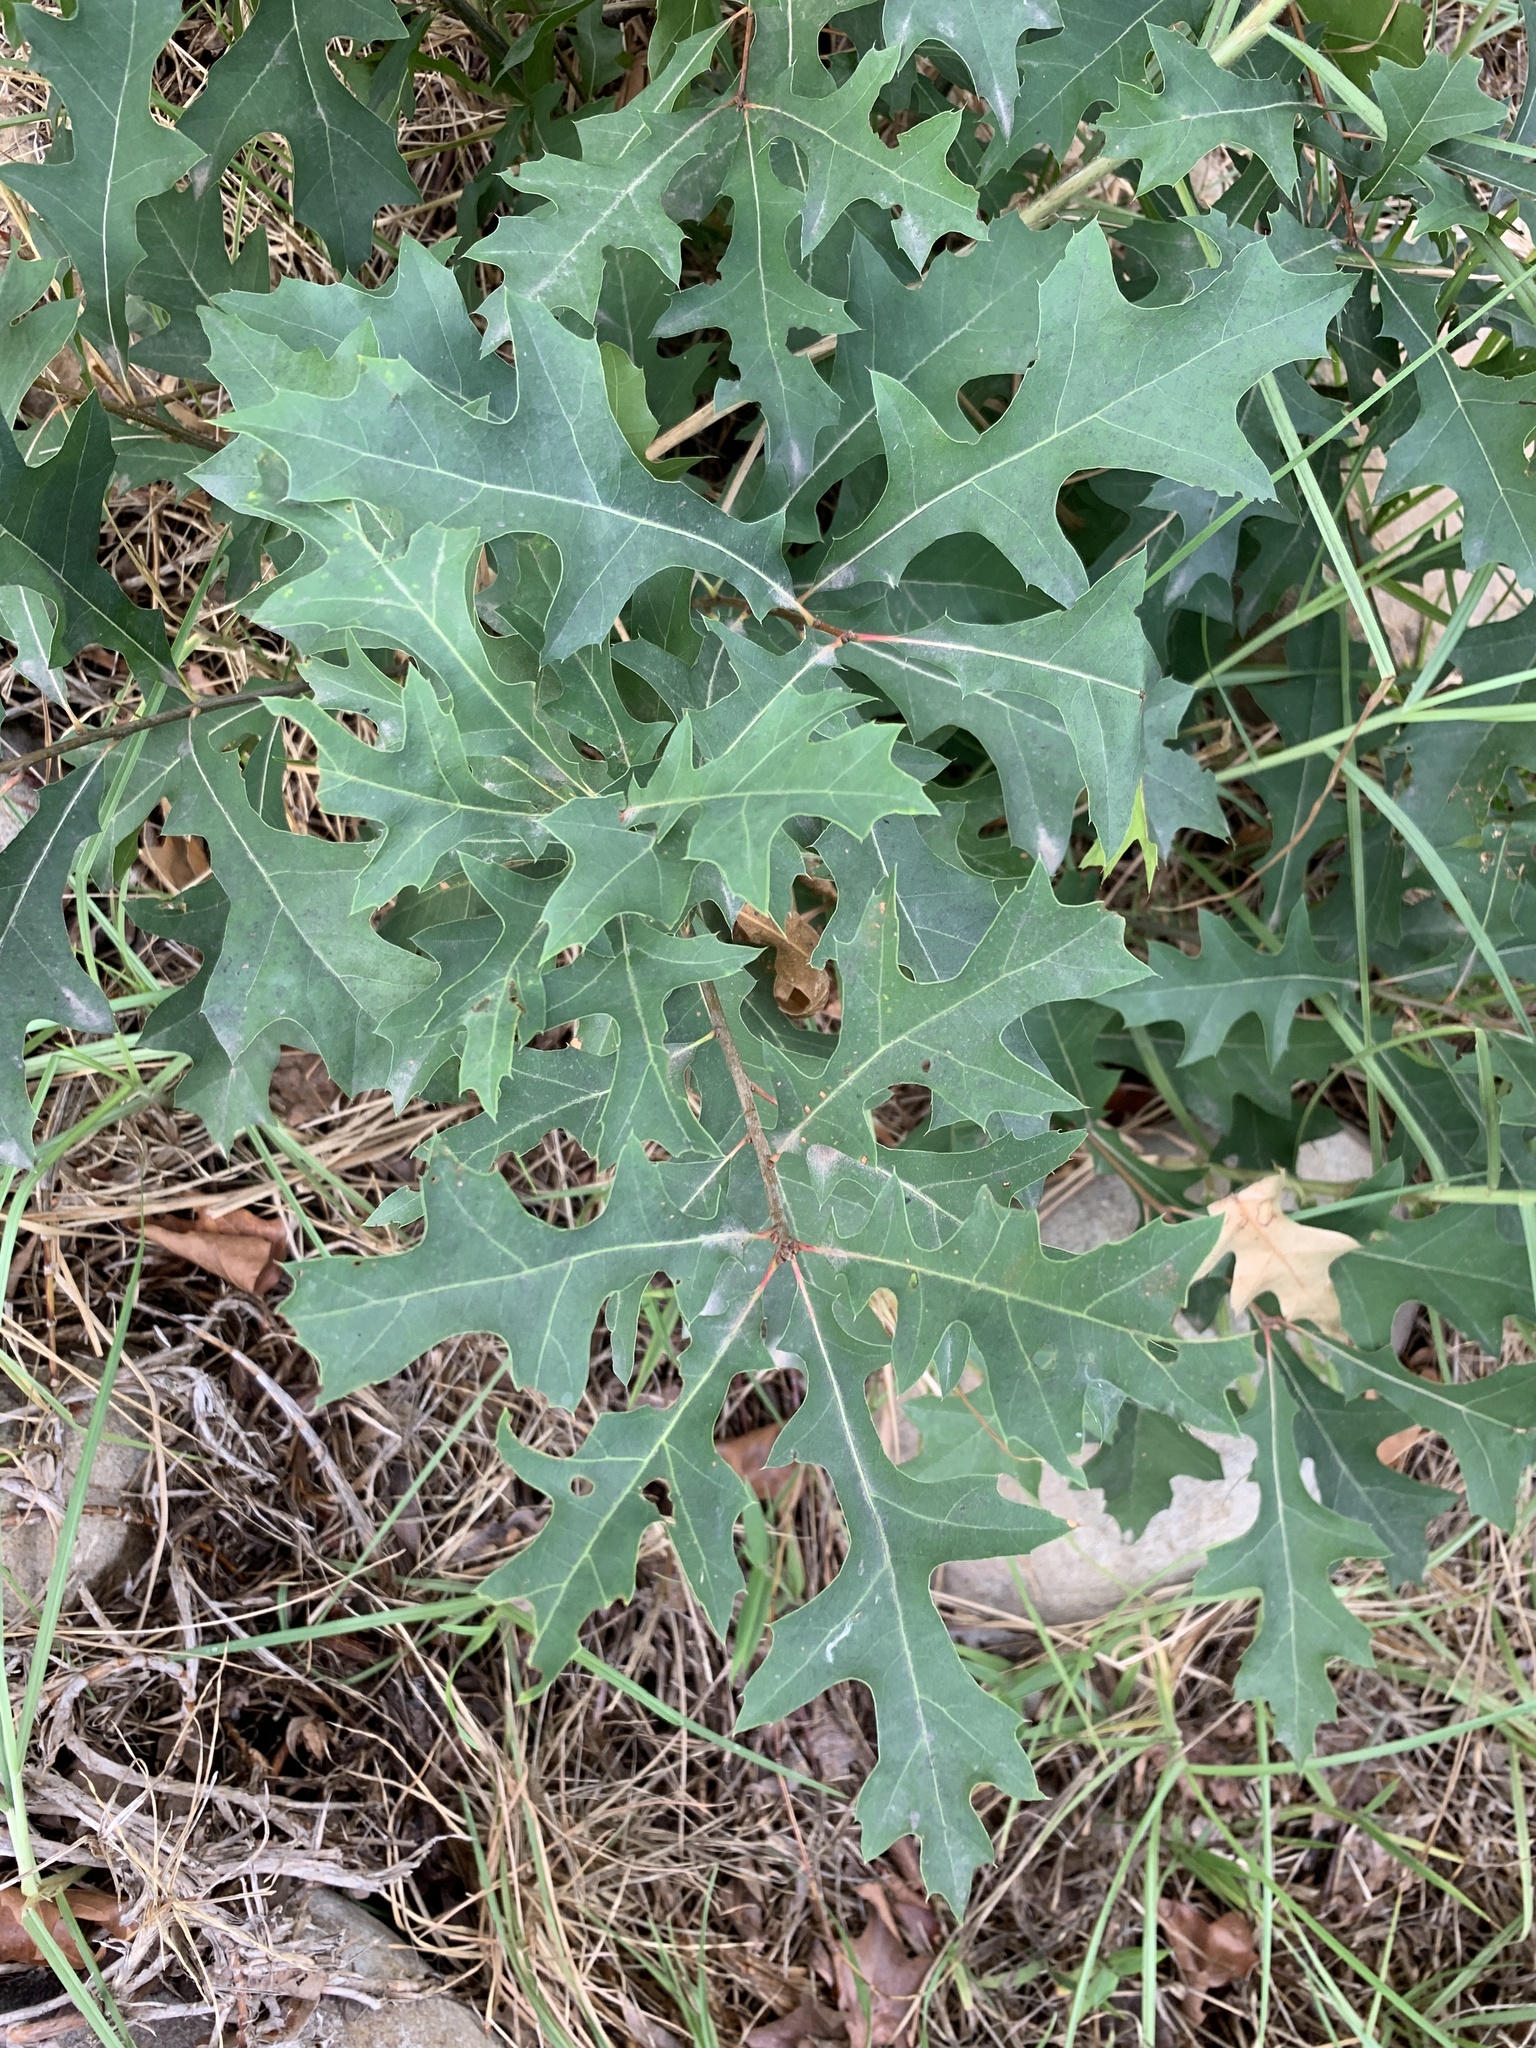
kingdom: Plantae
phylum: Tracheophyta
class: Magnoliopsida
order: Fagales
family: Fagaceae
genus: Quercus
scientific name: Quercus palustris
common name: Pin oak
